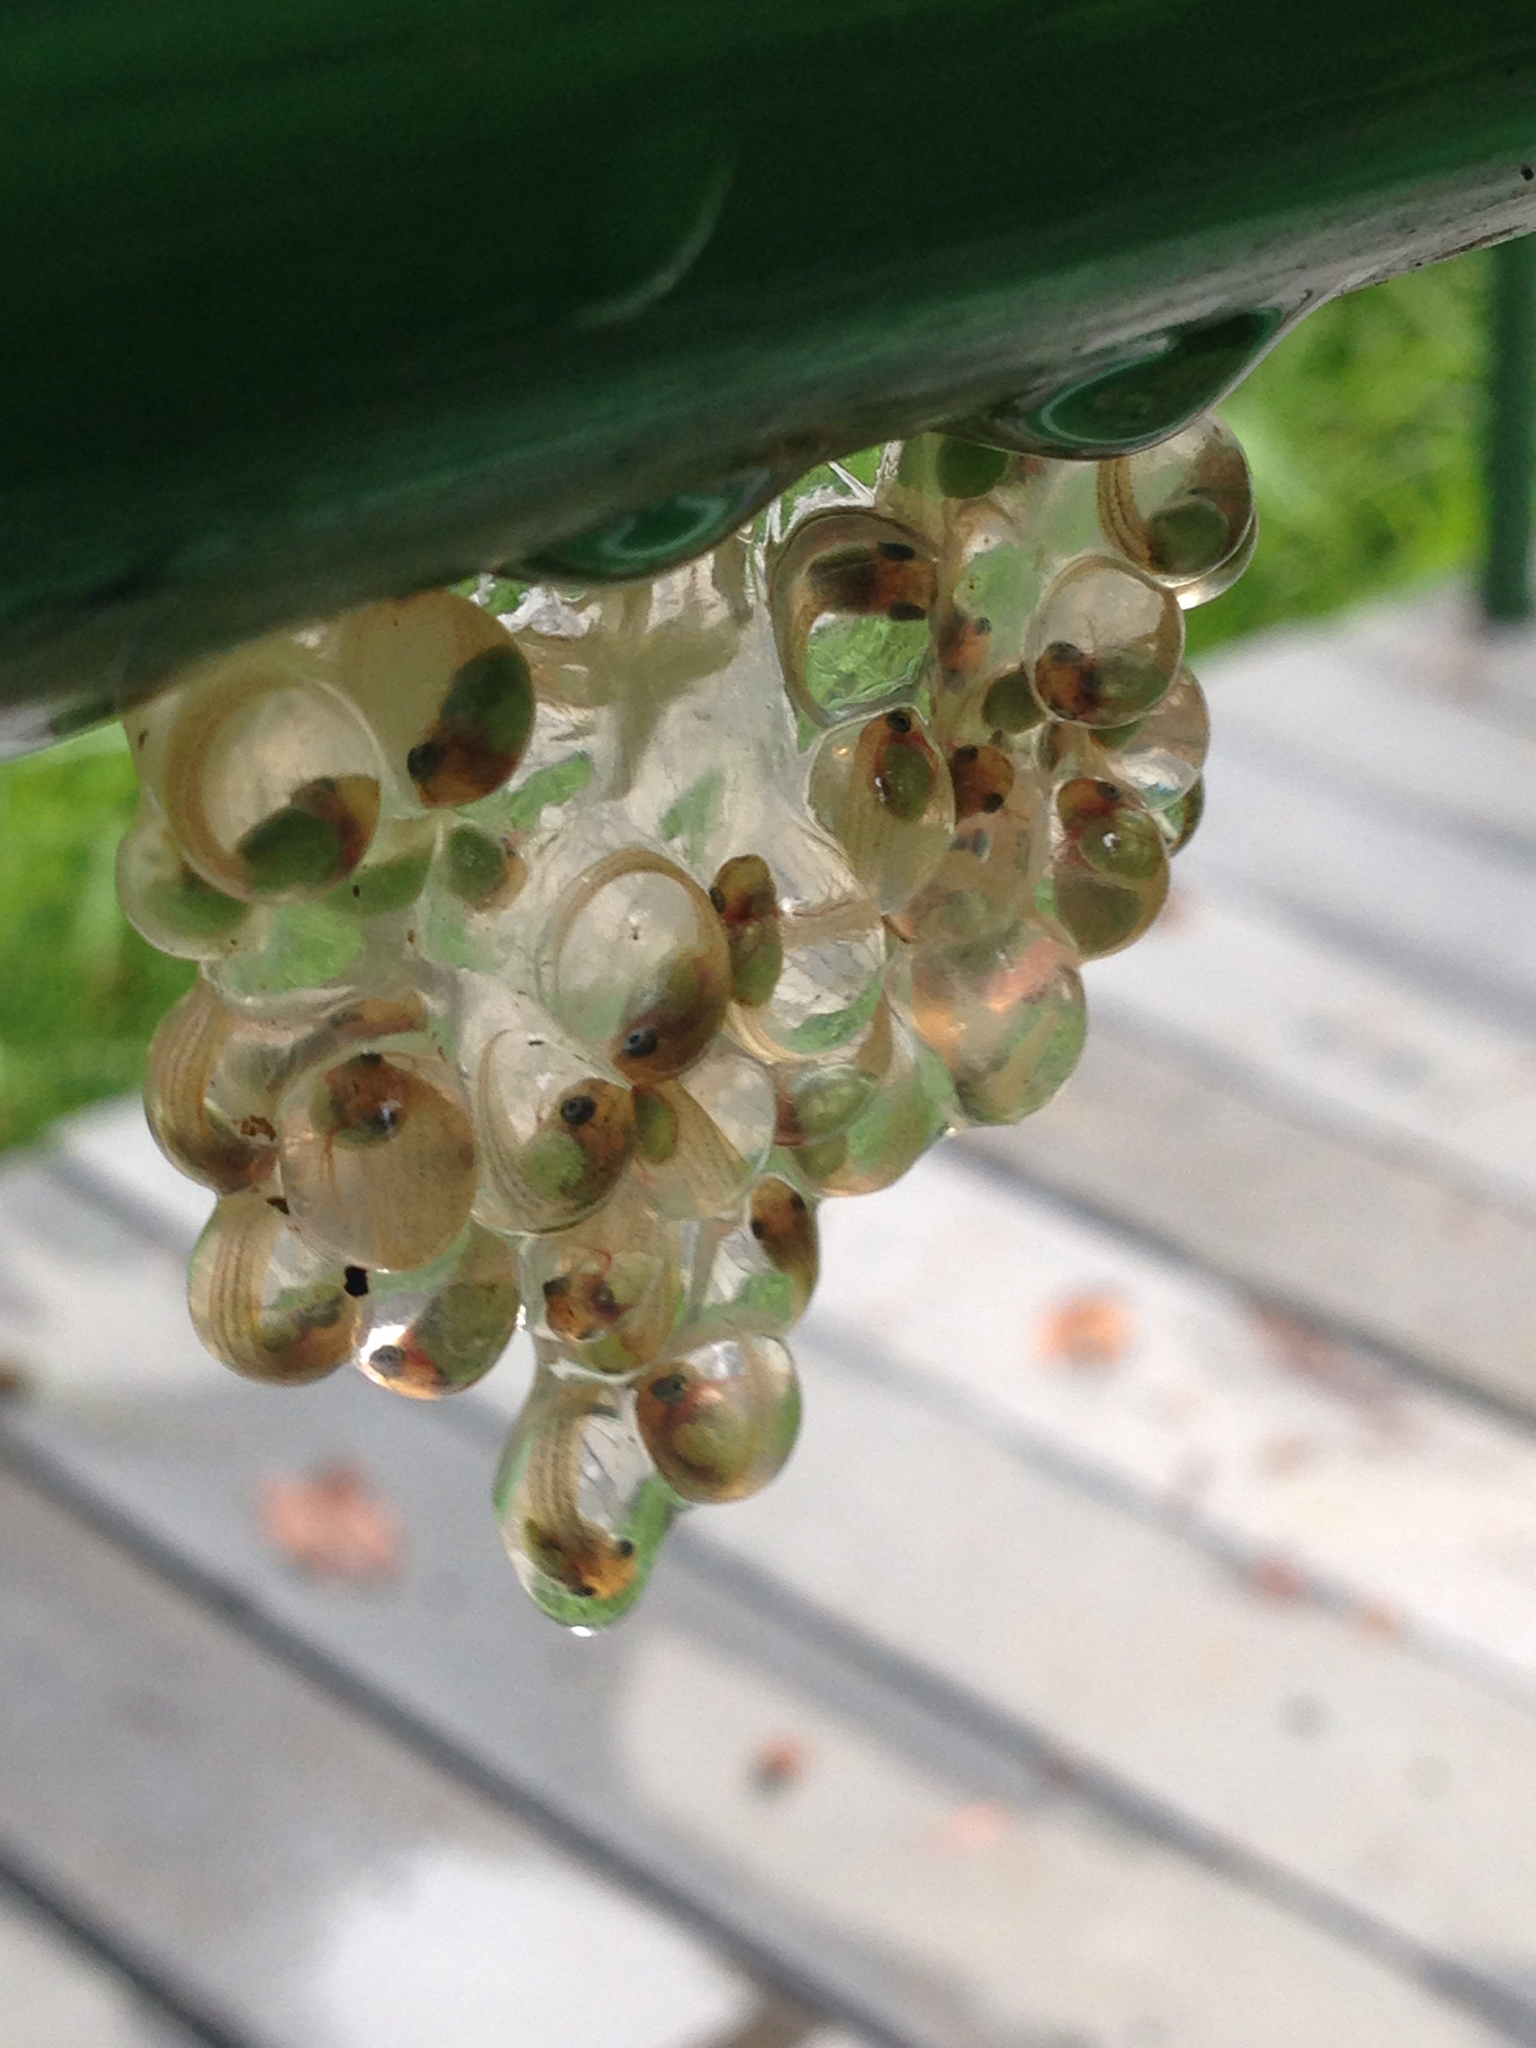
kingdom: Animalia
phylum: Chordata
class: Amphibia
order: Anura
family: Phyllomedusidae
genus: Agalychnis
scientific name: Agalychnis callidryas
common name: Red-eyed treefrog
